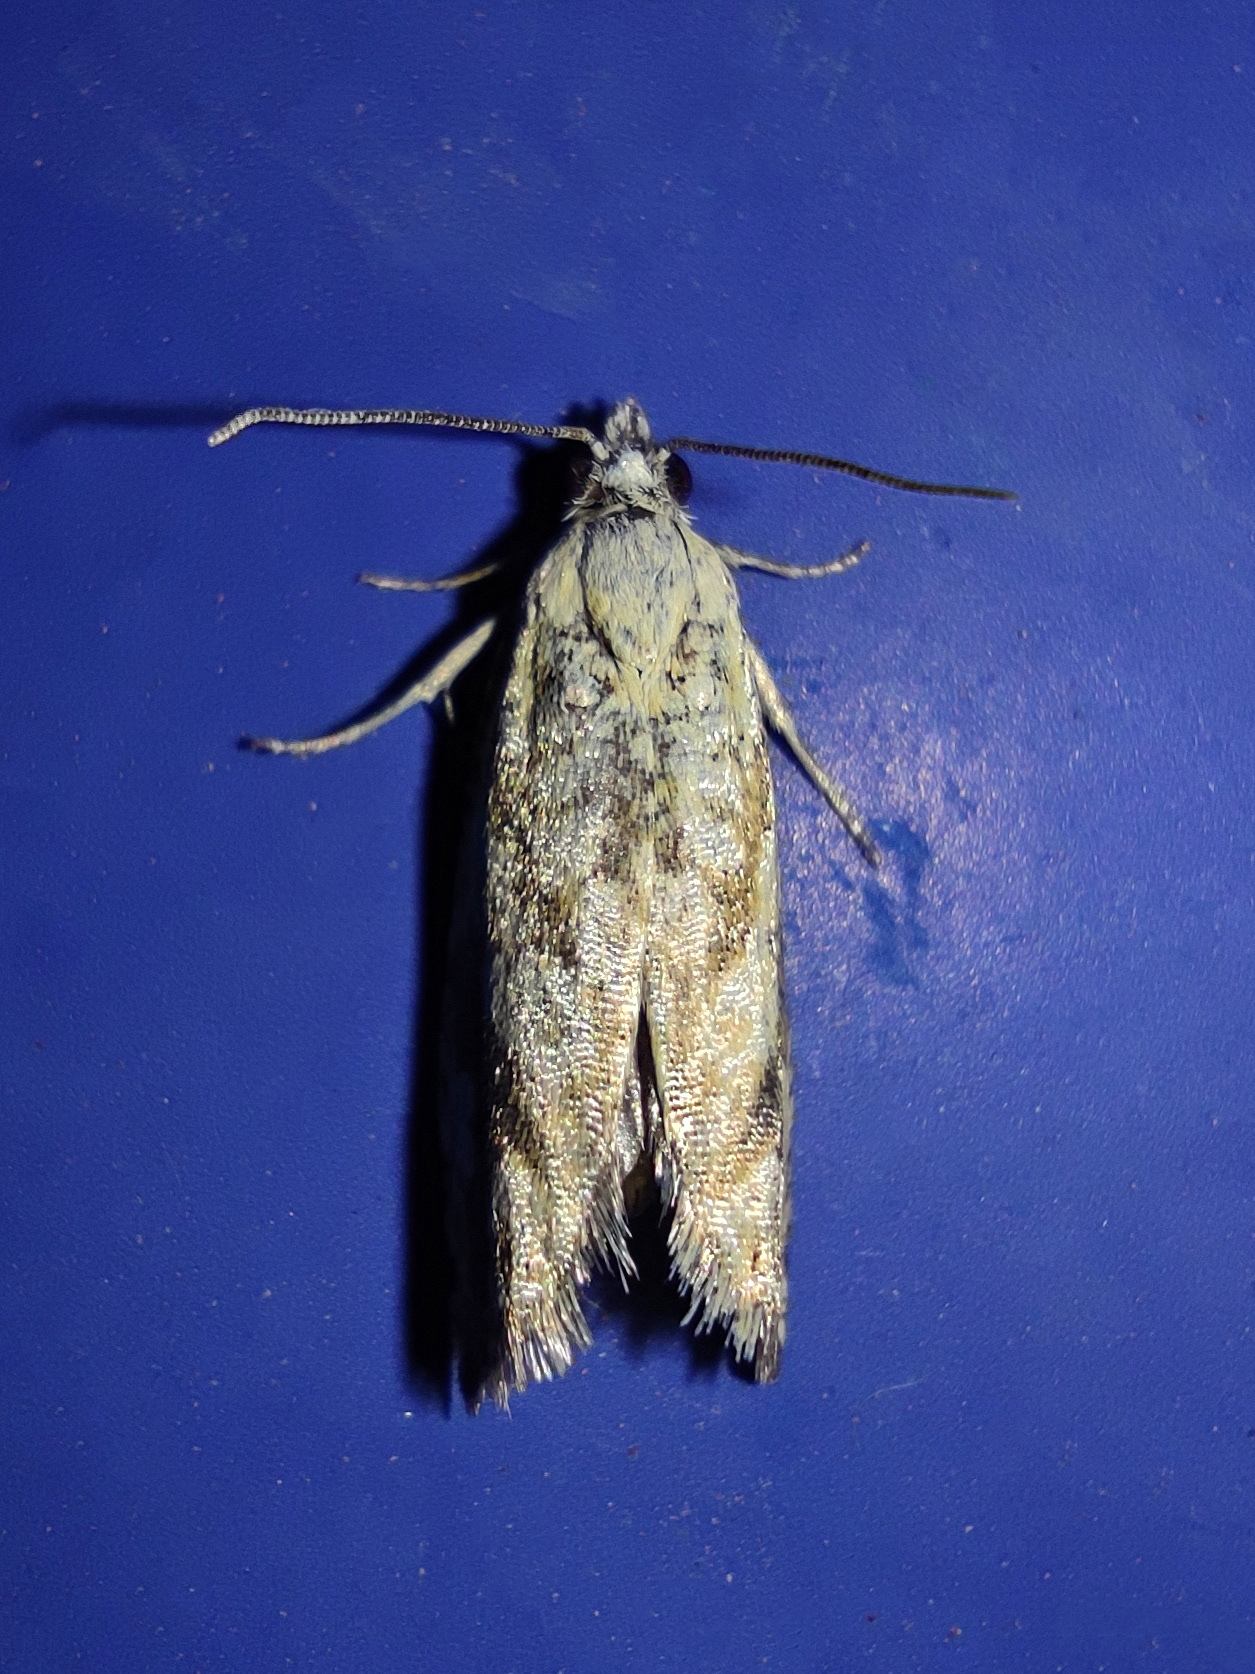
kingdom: Animalia
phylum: Arthropoda
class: Insecta
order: Lepidoptera
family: Tortricidae
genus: Thiodia
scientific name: Thiodia citrana
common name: Lemon bell
